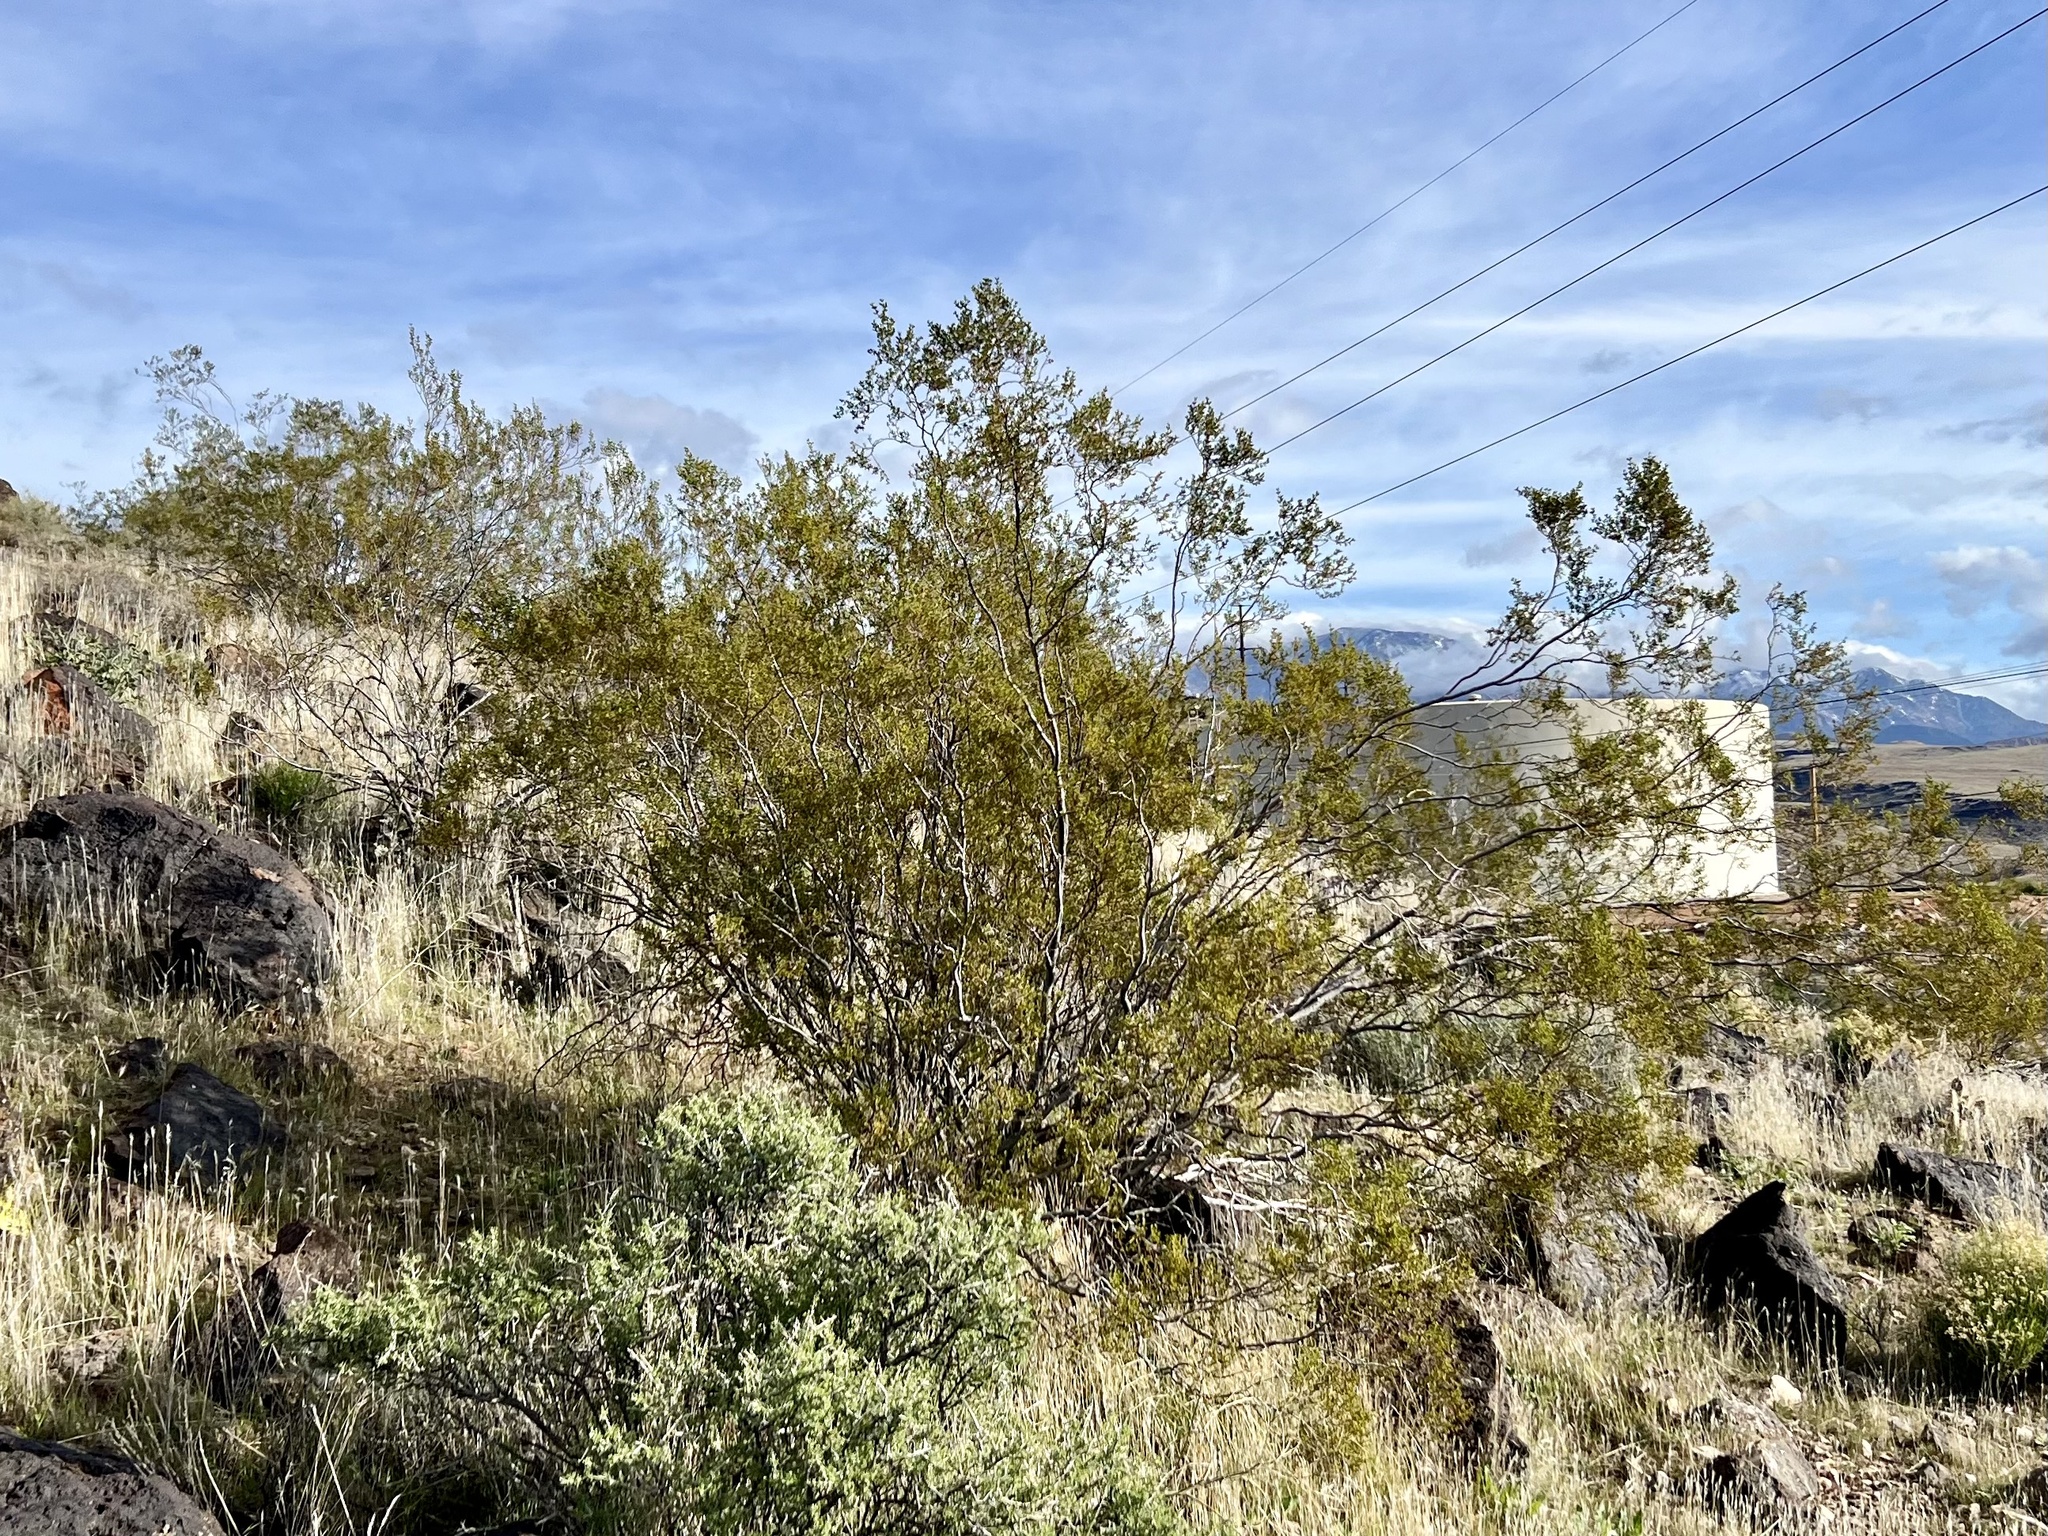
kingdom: Plantae
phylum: Tracheophyta
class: Magnoliopsida
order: Zygophyllales
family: Zygophyllaceae
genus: Larrea
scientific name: Larrea tridentata
